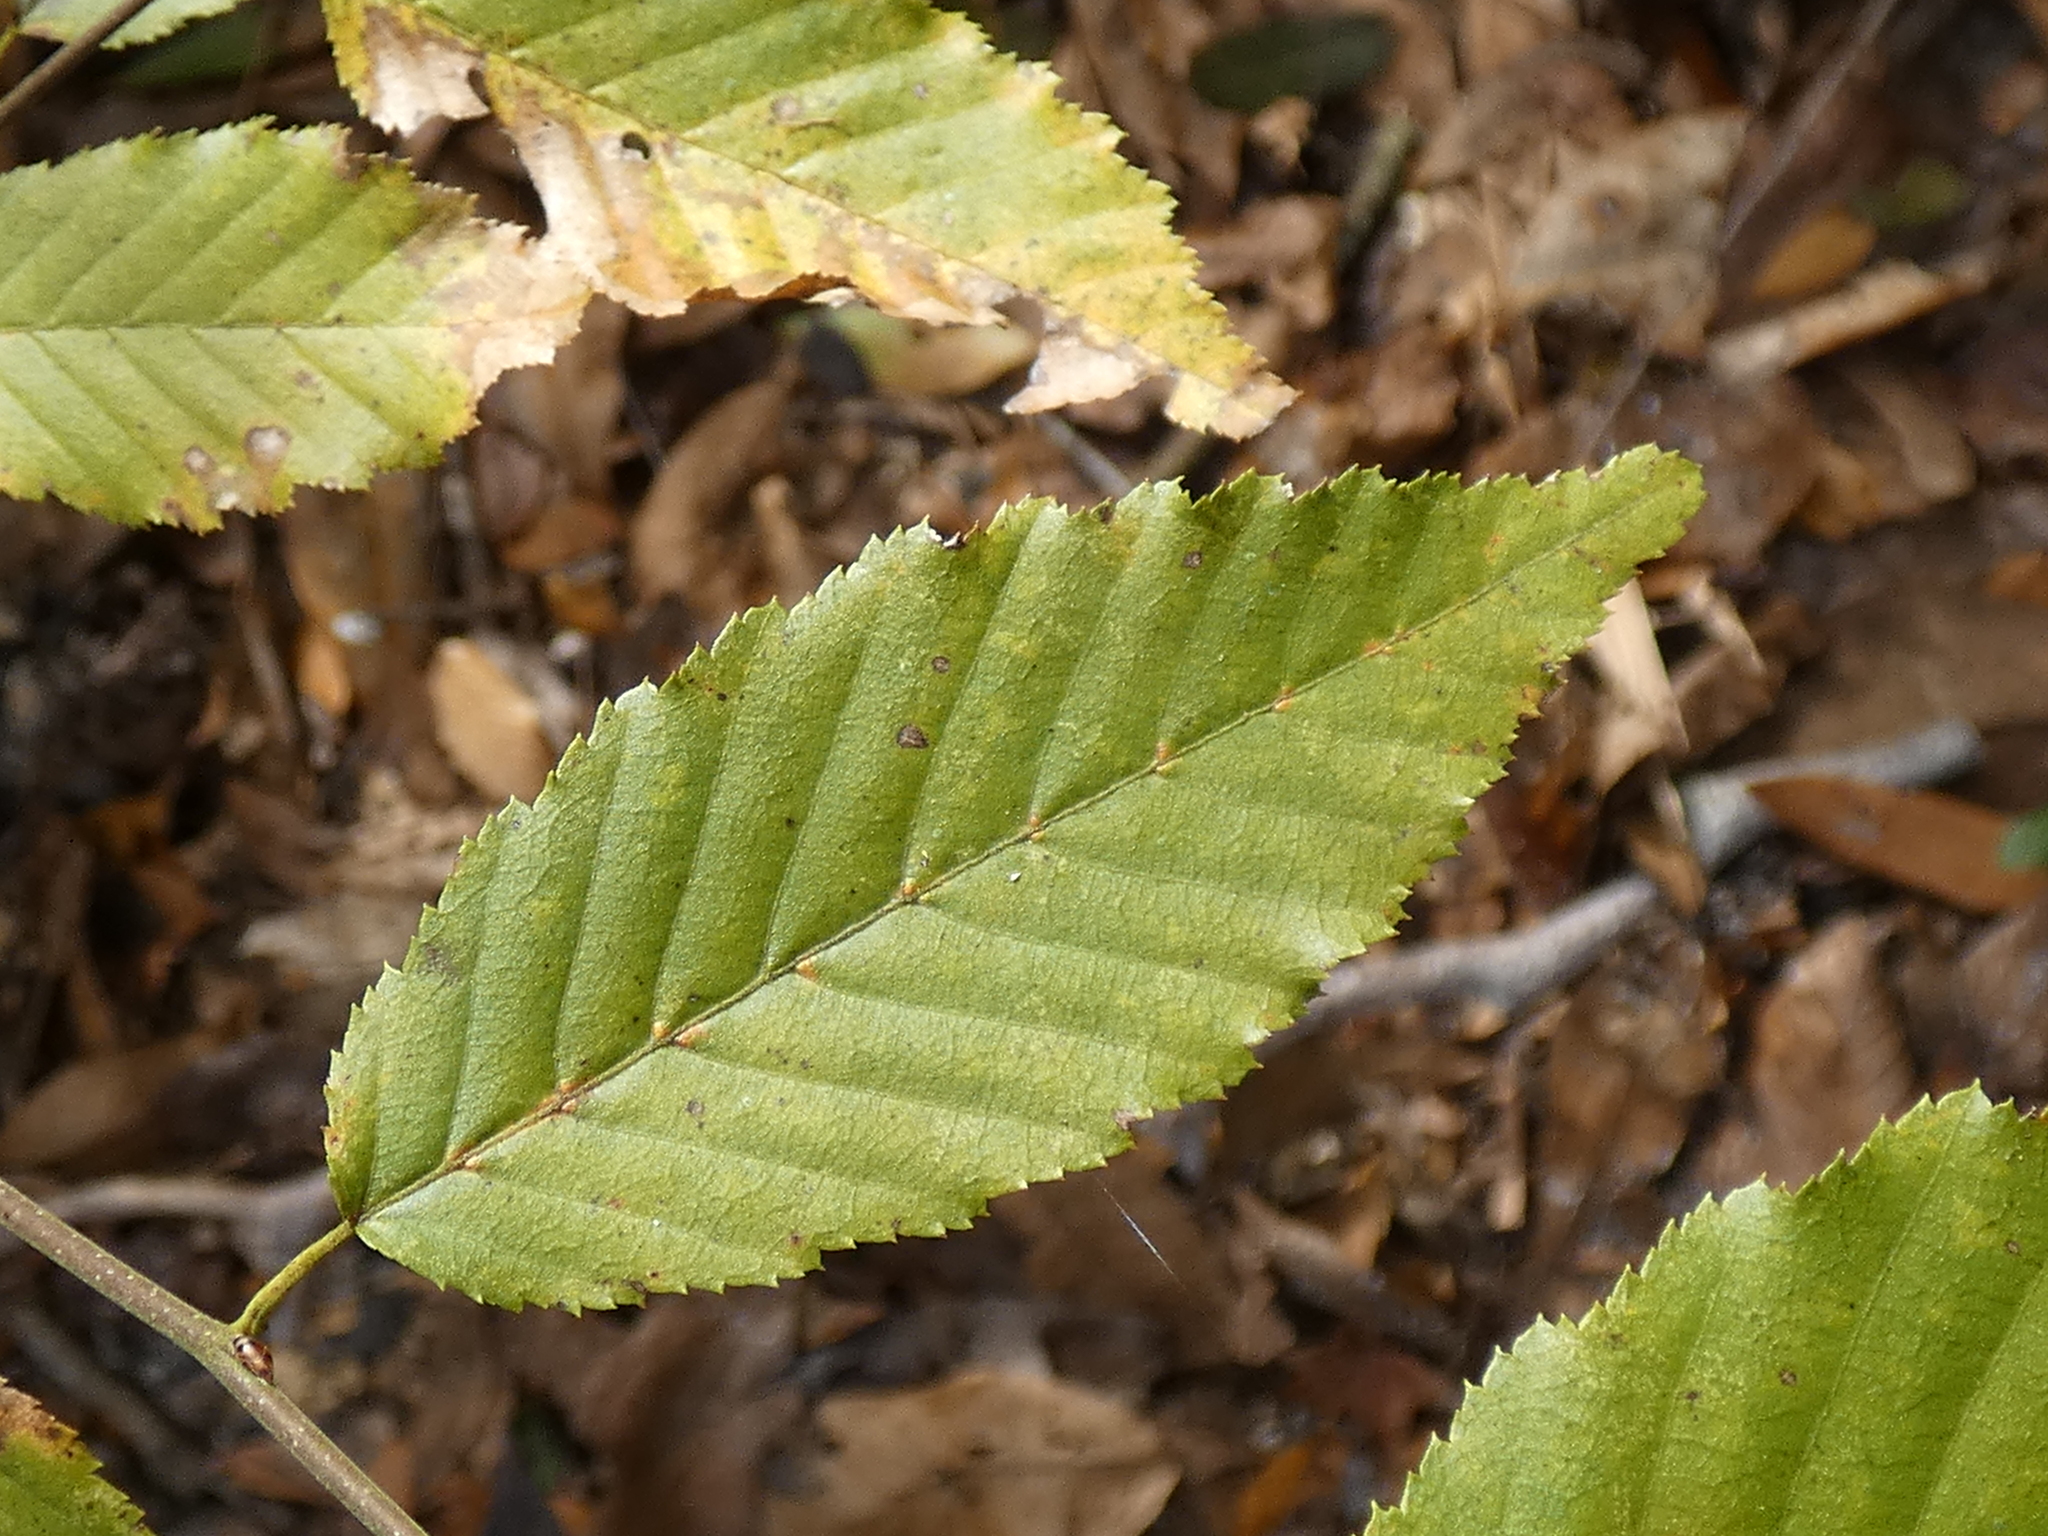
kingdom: Plantae
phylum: Tracheophyta
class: Magnoliopsida
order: Fagales
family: Betulaceae
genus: Carpinus
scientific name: Carpinus caroliniana
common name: American hornbeam
